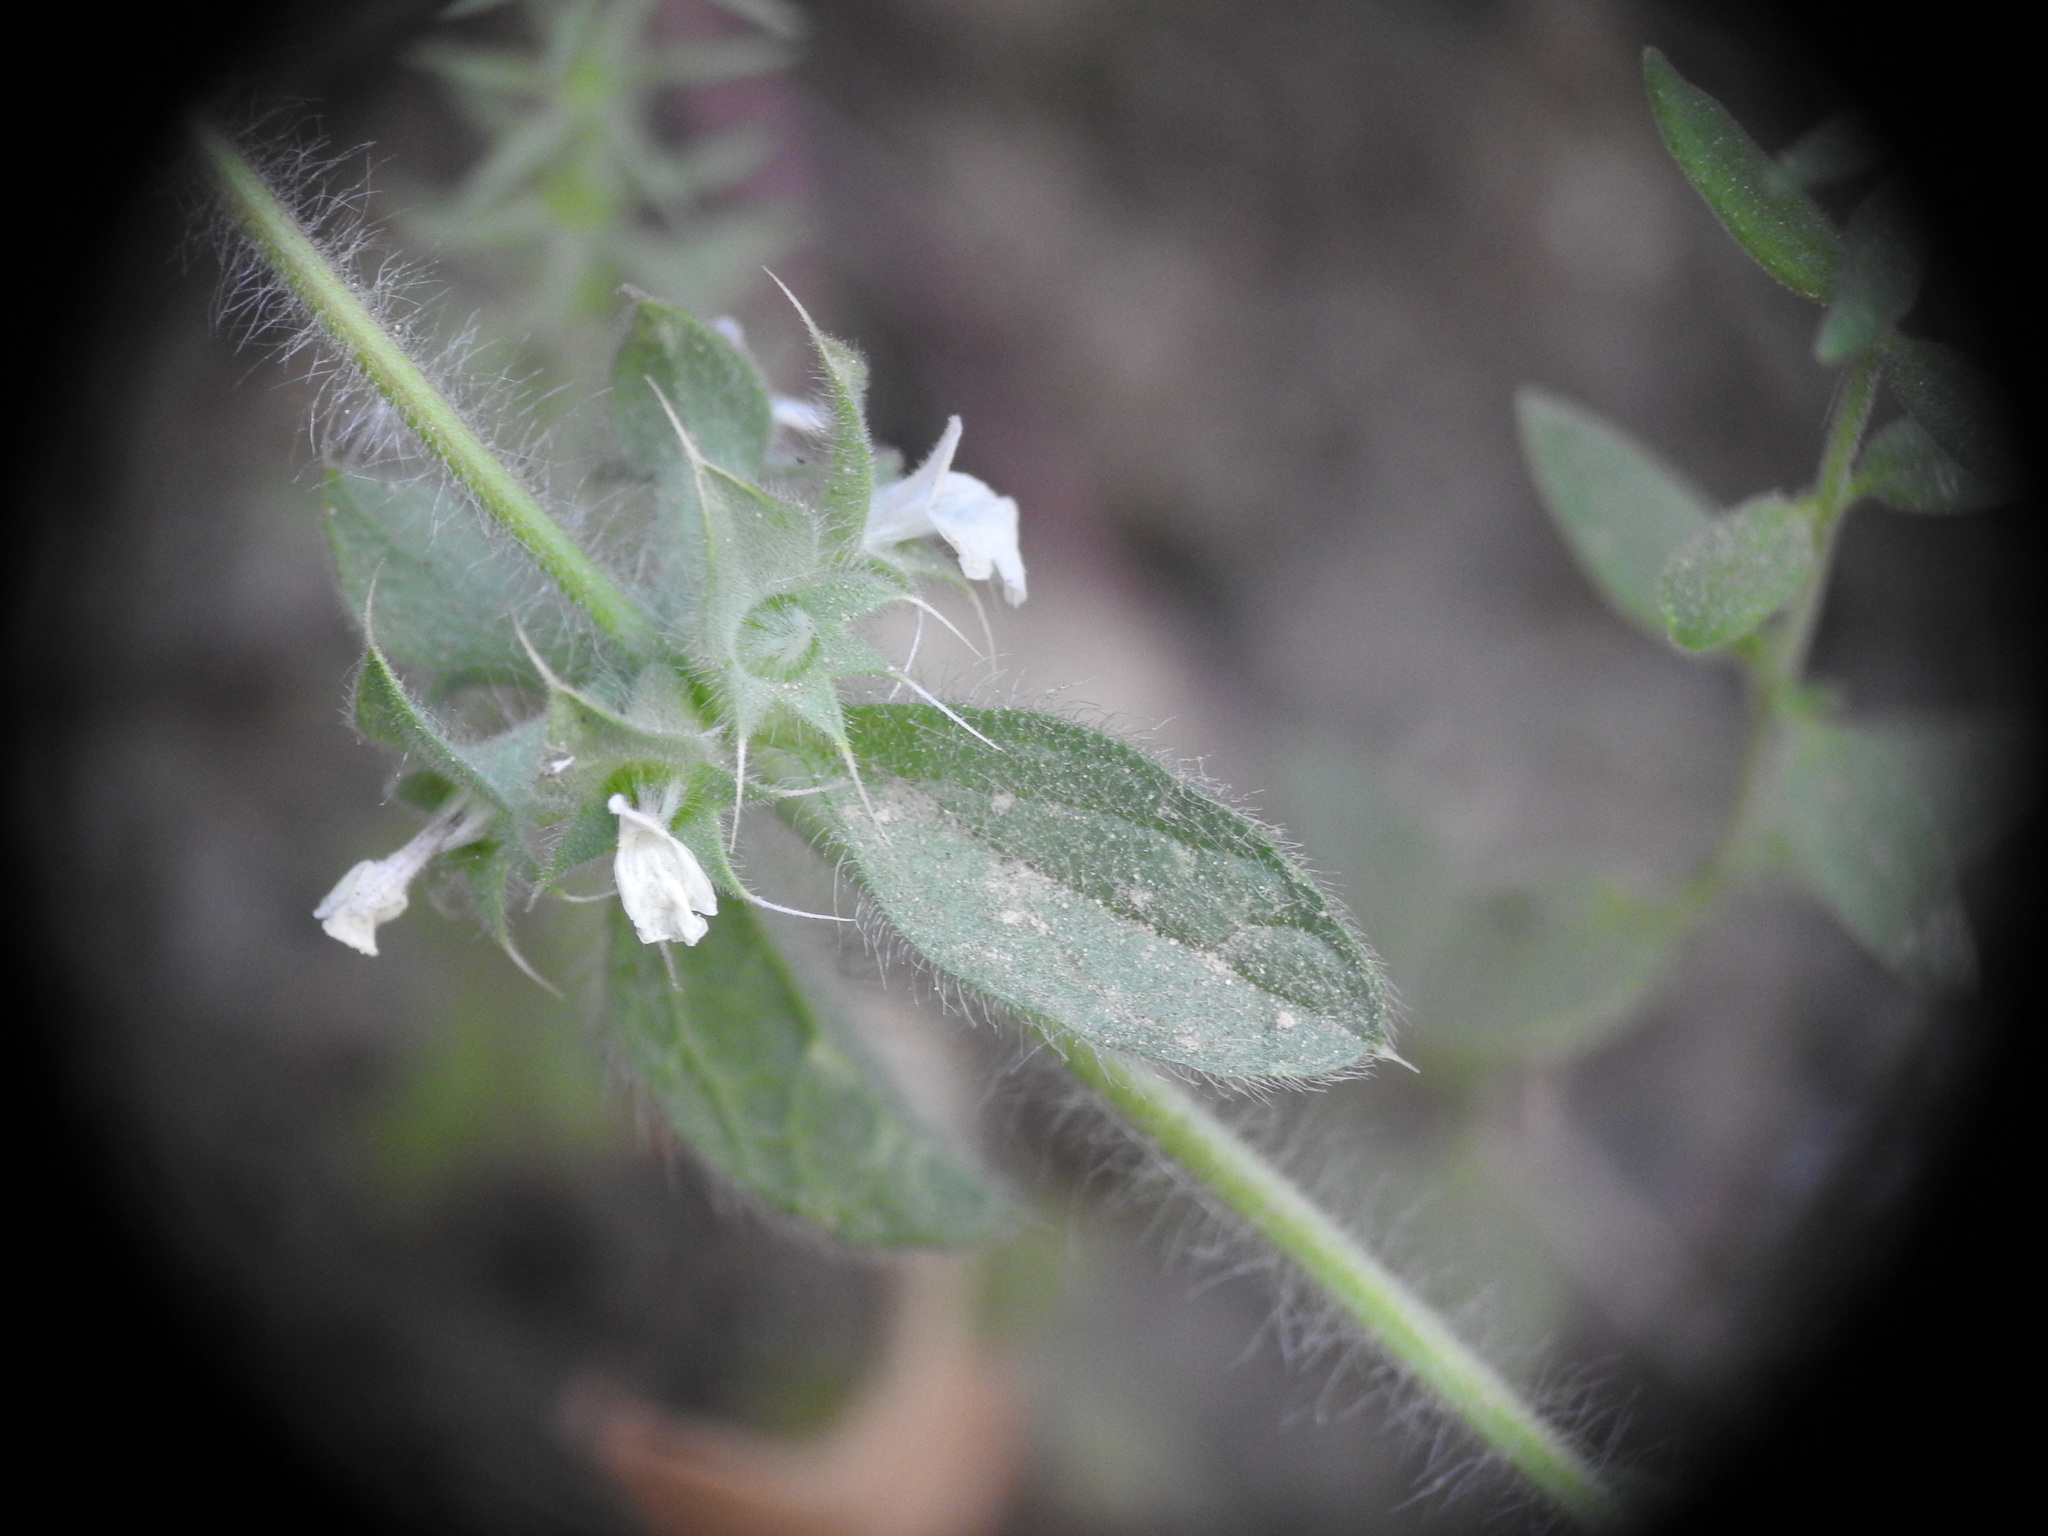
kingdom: Plantae
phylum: Tracheophyta
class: Magnoliopsida
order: Lamiales
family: Lamiaceae
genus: Sideritis
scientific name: Sideritis romana
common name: Simplebeak ironwort
